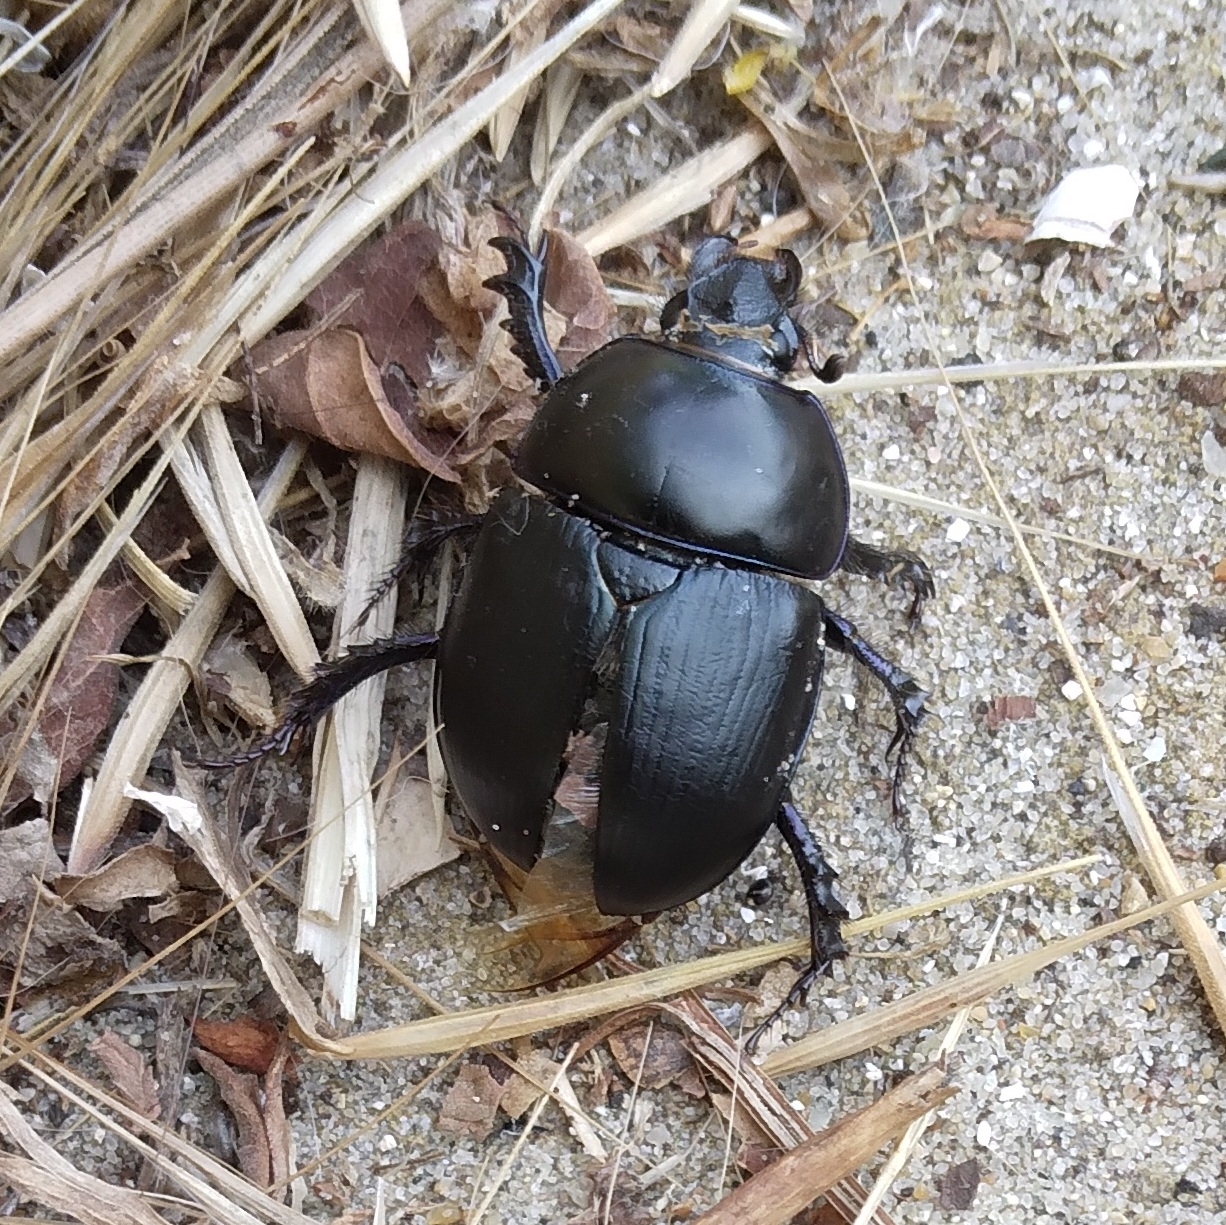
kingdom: Animalia
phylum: Arthropoda
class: Insecta
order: Coleoptera
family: Geotrupidae
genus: Sericotrupes
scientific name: Sericotrupes niger
